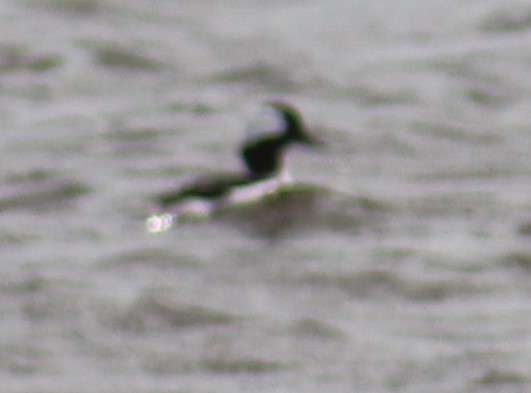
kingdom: Animalia
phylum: Chordata
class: Aves
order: Anseriformes
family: Anatidae
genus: Bucephala
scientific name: Bucephala albeola
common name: Bufflehead
